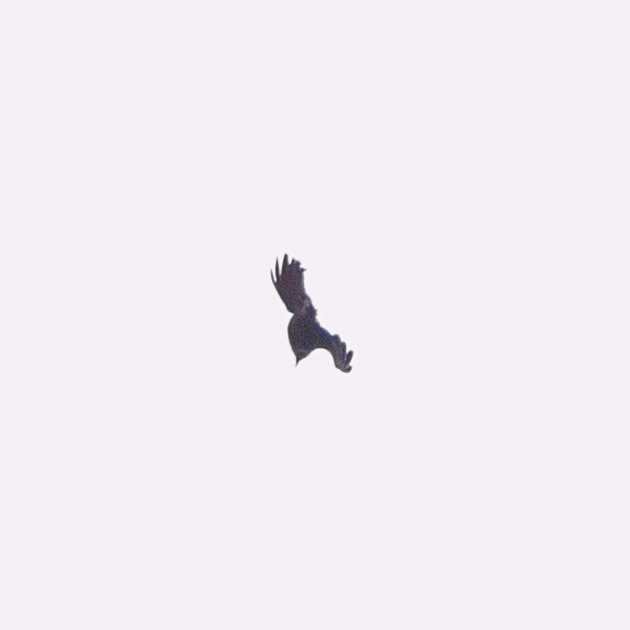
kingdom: Animalia
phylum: Chordata
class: Aves
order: Passeriformes
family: Corvidae
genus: Coloeus
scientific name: Coloeus monedula
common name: Western jackdaw
